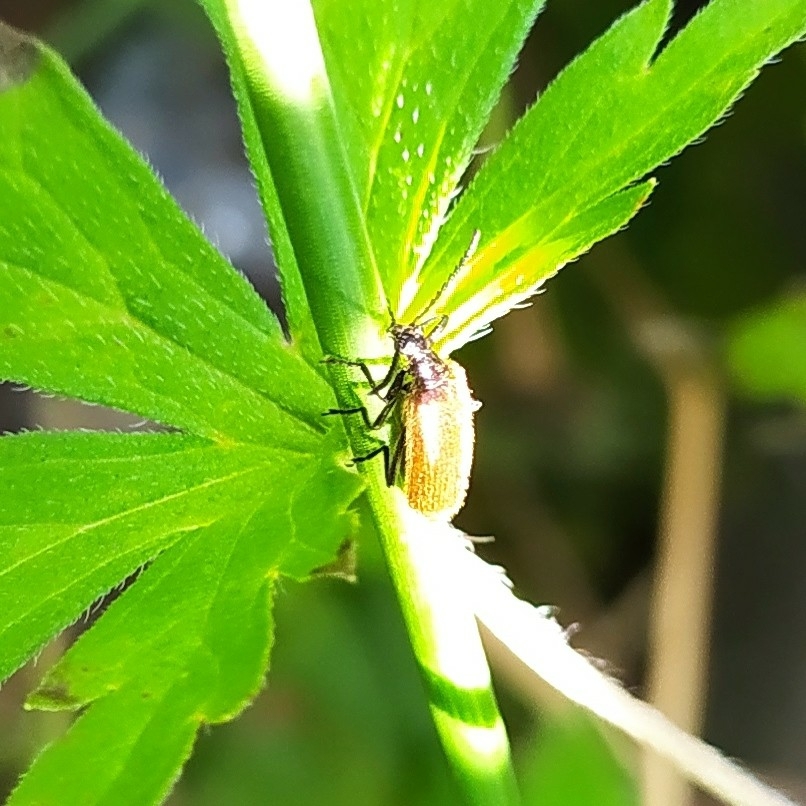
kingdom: Animalia
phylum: Arthropoda
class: Insecta
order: Coleoptera
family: Tenebrionidae
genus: Lagria
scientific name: Lagria hirta
